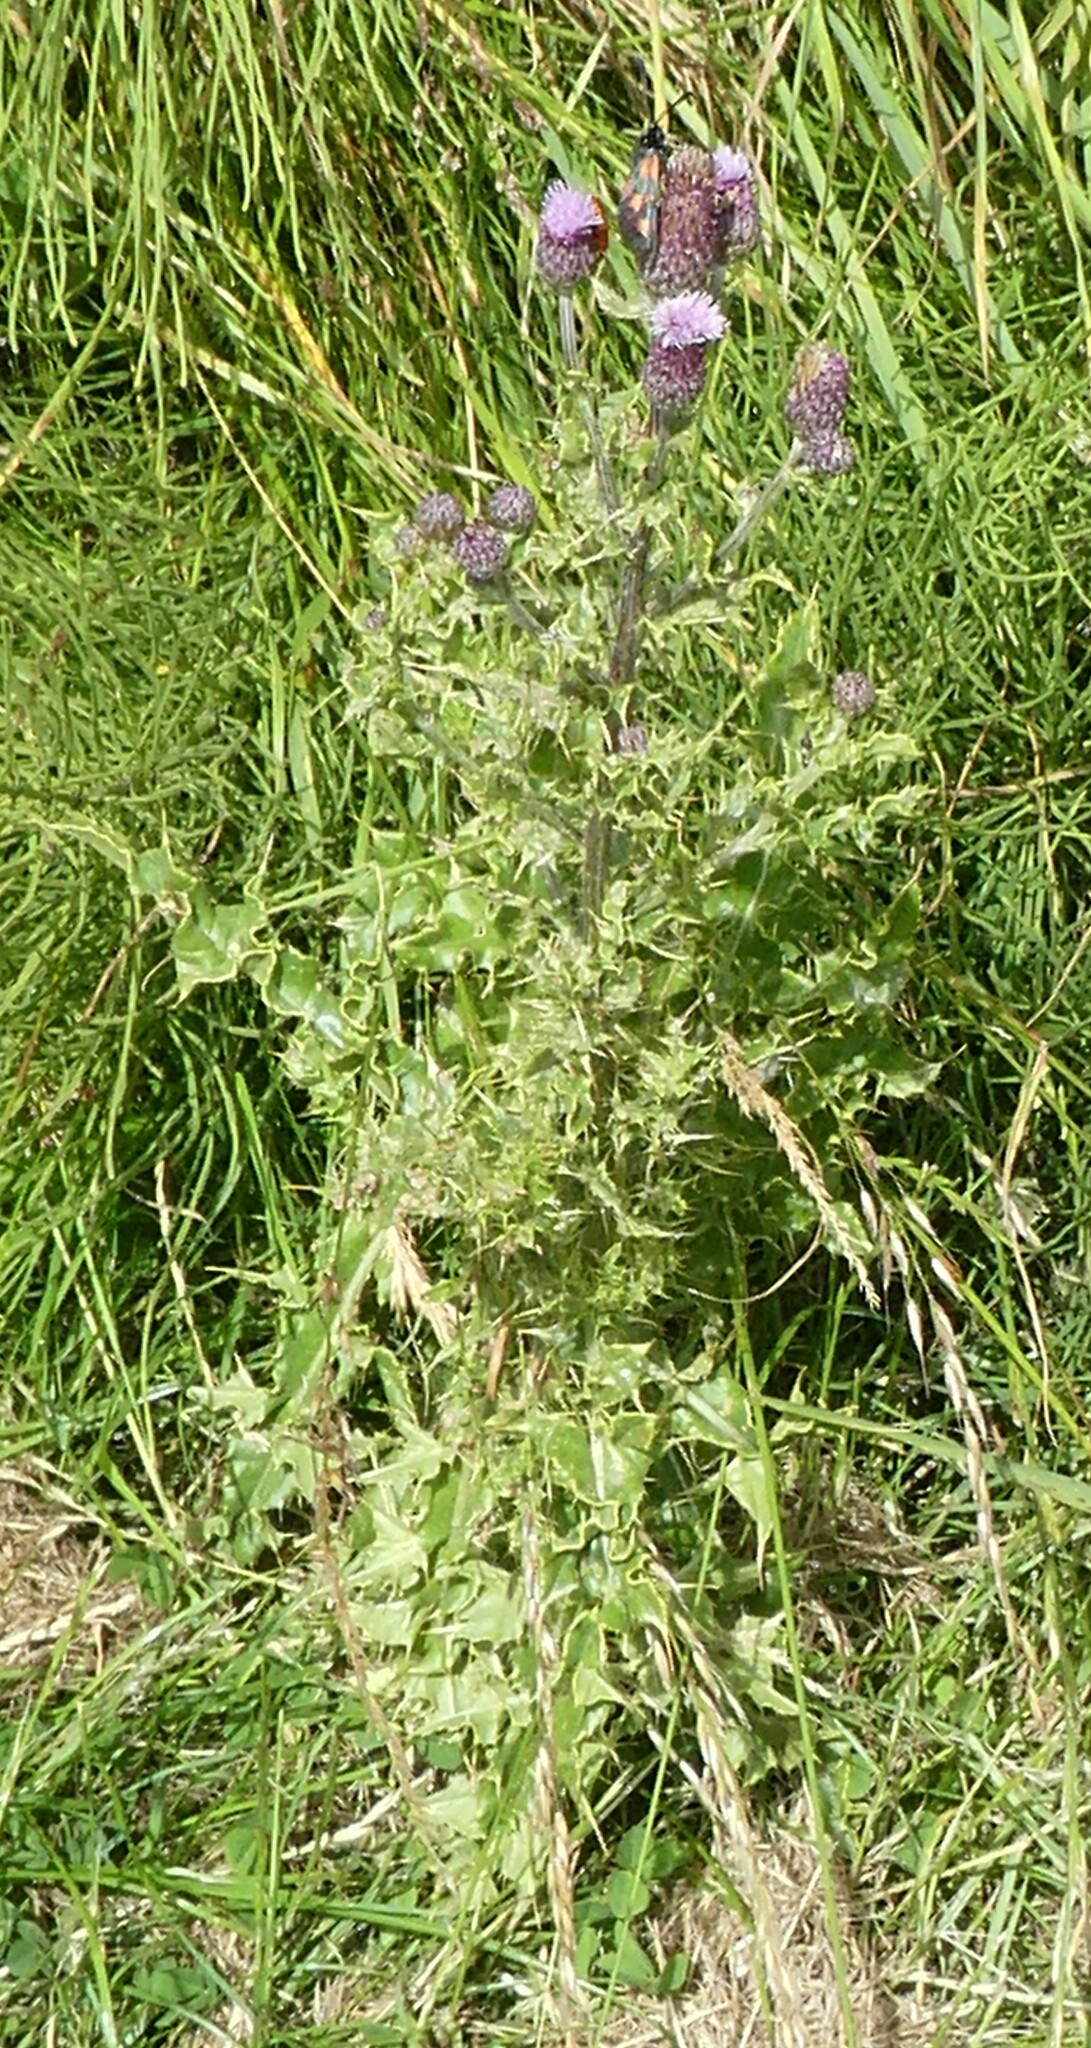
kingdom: Plantae
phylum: Tracheophyta
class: Magnoliopsida
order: Asterales
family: Asteraceae
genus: Cirsium
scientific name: Cirsium arvense
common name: Creeping thistle
